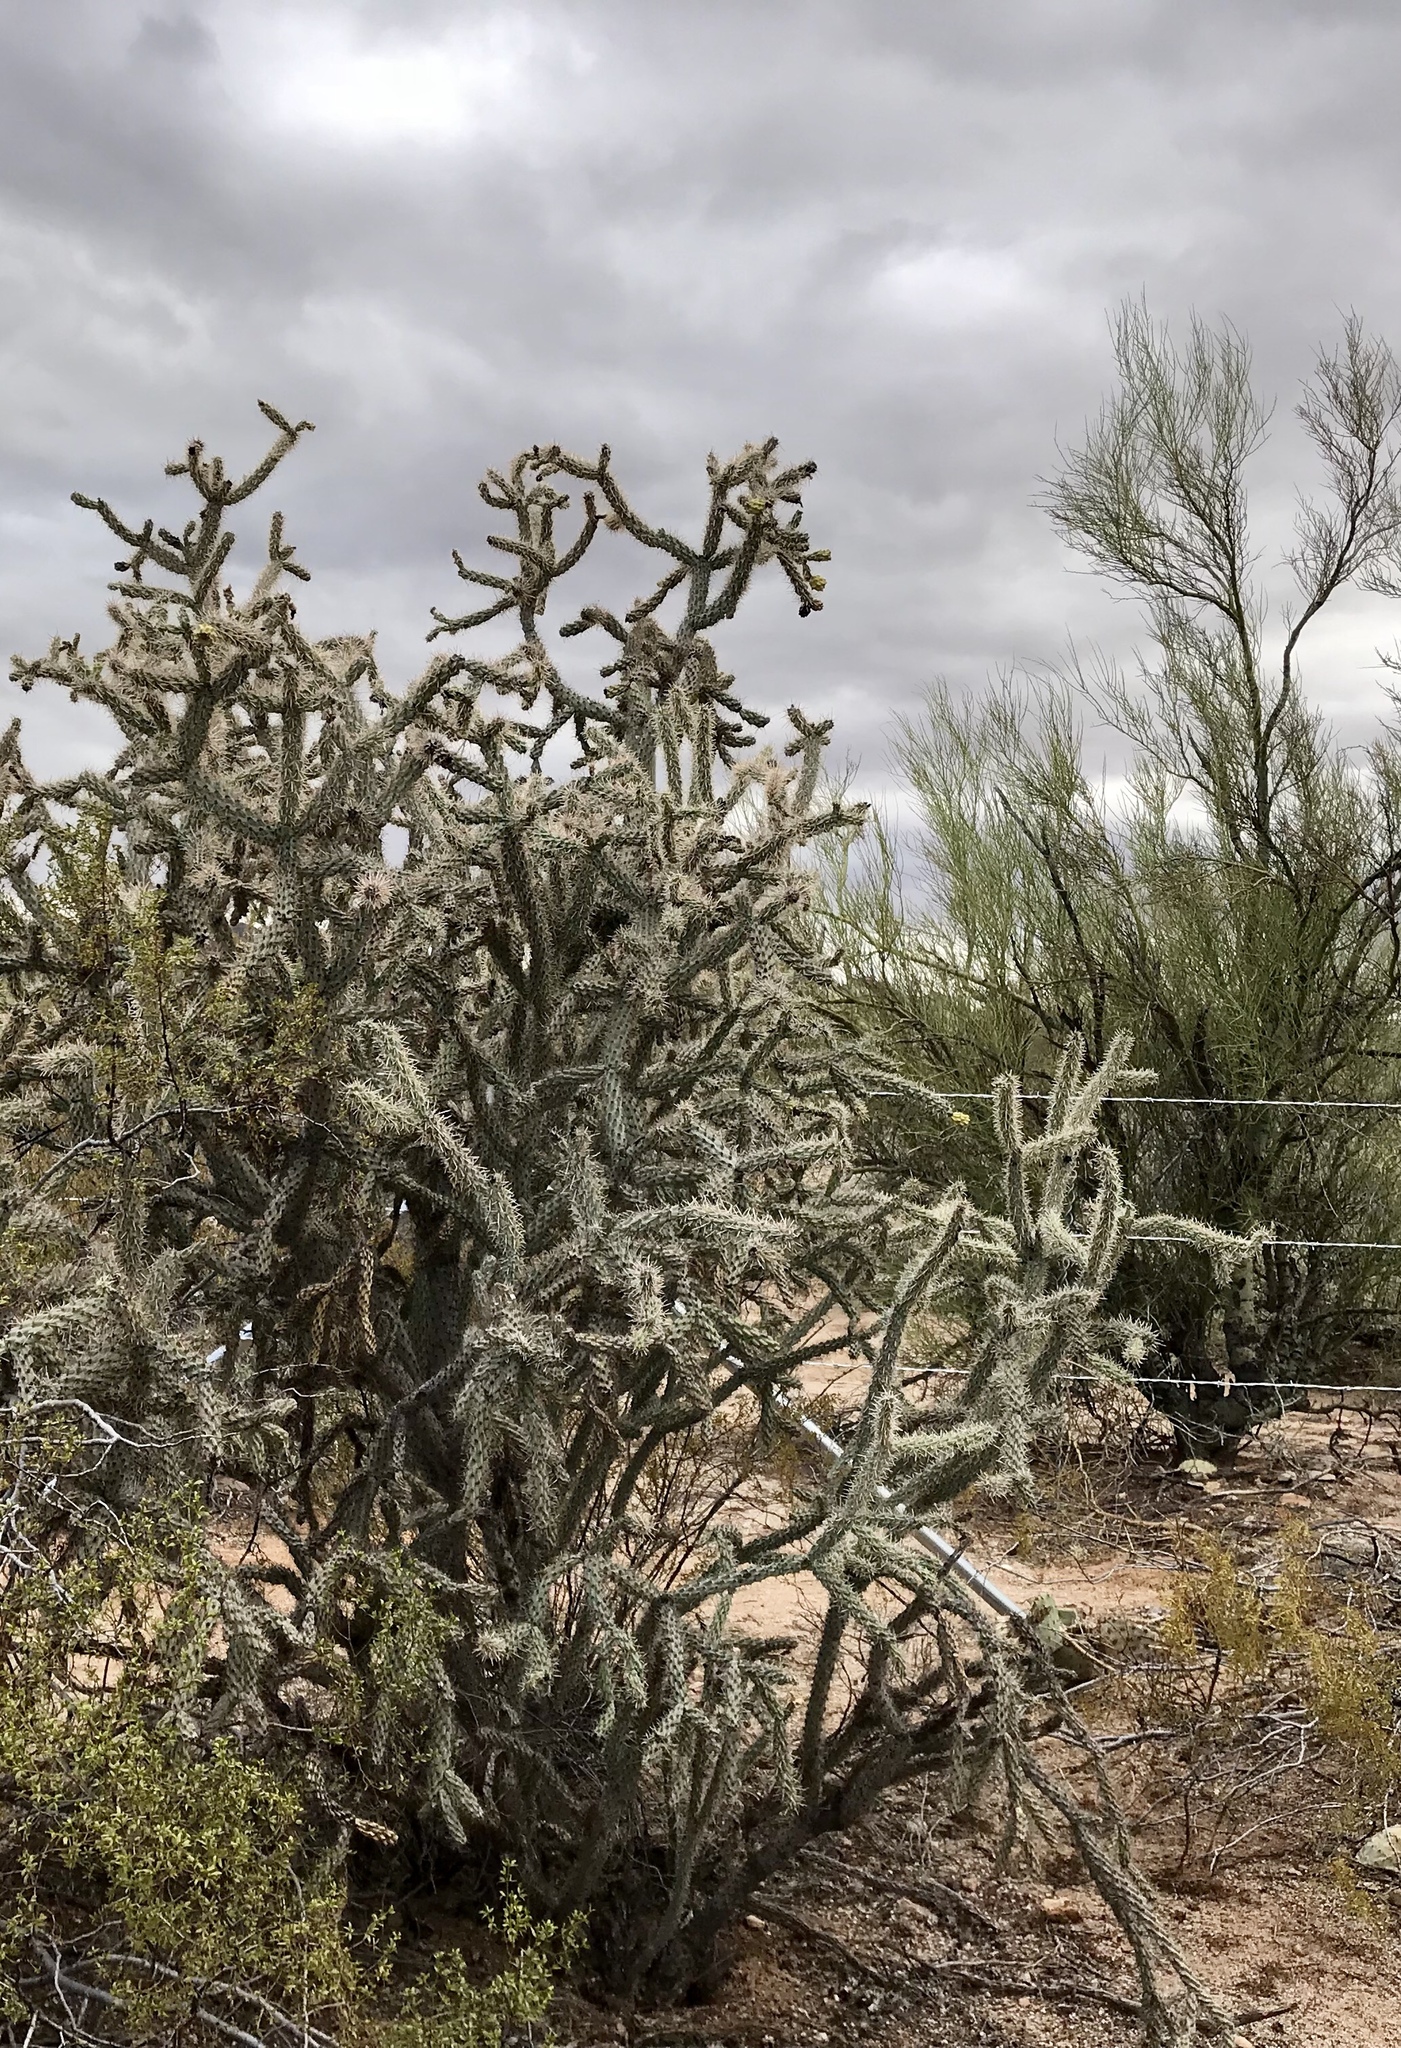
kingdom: Plantae
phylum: Tracheophyta
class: Magnoliopsida
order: Caryophyllales
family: Cactaceae
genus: Cylindropuntia
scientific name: Cylindropuntia imbricata
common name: Candelabrum cactus
